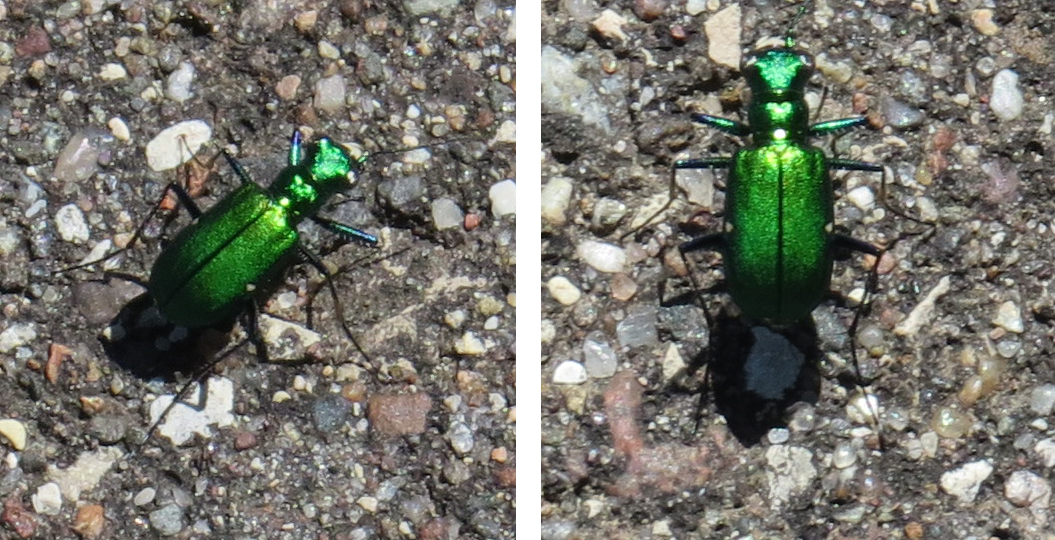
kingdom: Animalia
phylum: Arthropoda
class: Insecta
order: Coleoptera
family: Carabidae
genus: Cicindela
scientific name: Cicindela sexguttata
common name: Six-spotted tiger beetle
